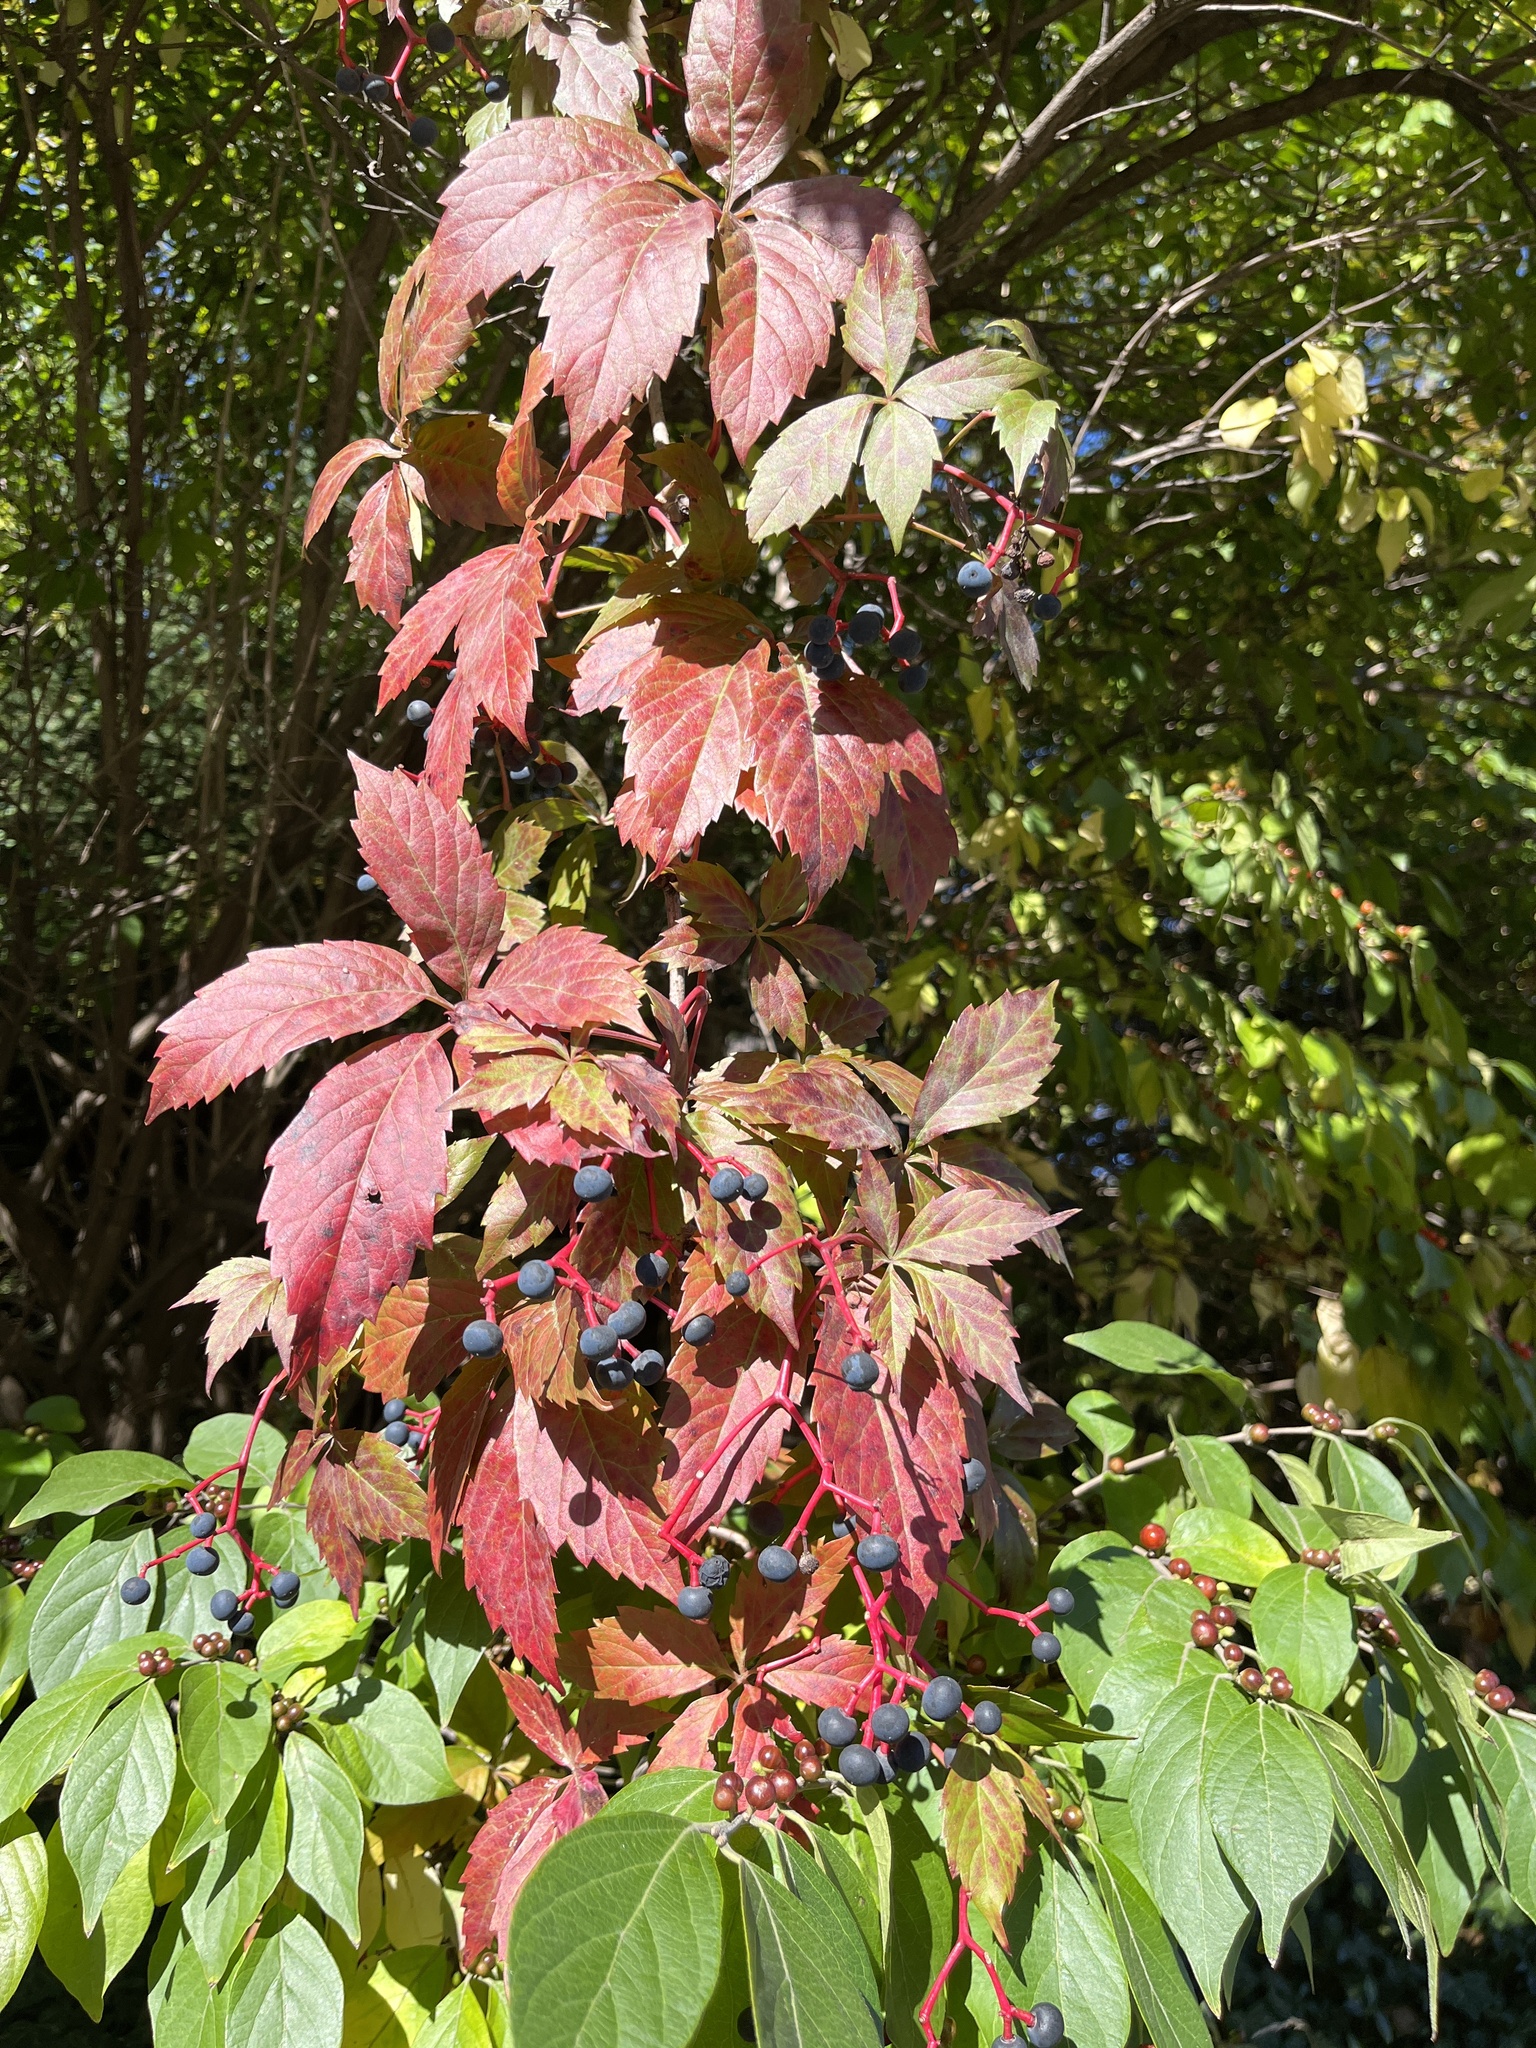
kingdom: Plantae
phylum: Tracheophyta
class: Magnoliopsida
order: Vitales
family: Vitaceae
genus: Parthenocissus
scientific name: Parthenocissus quinquefolia
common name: Virginia-creeper
